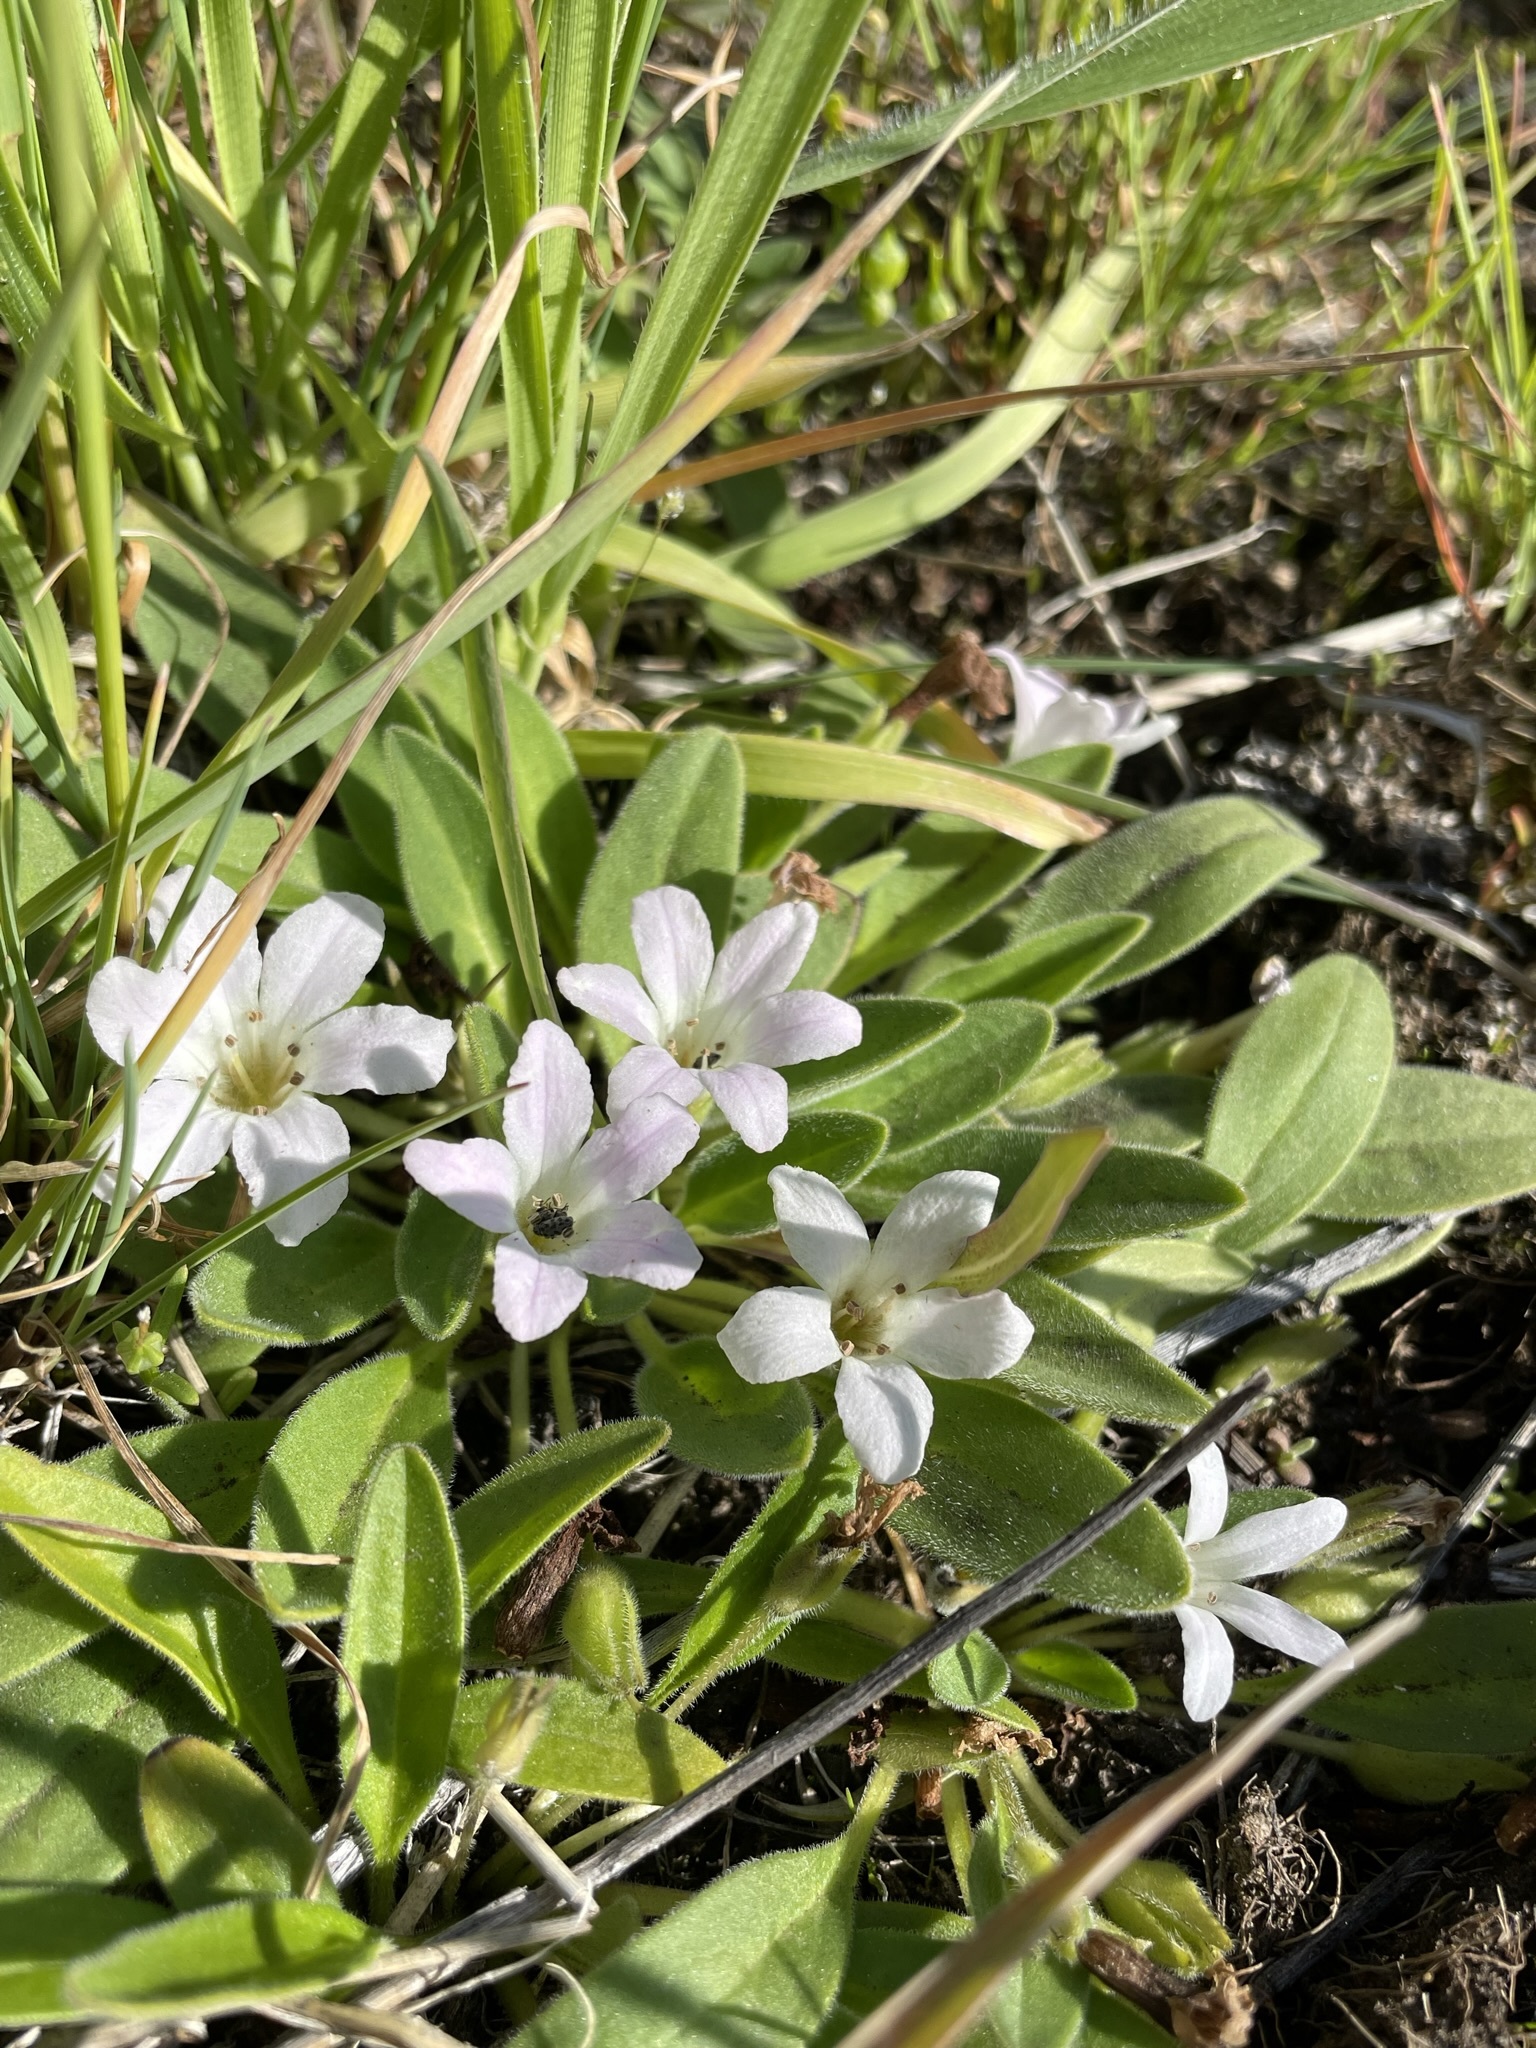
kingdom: Plantae
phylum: Tracheophyta
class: Magnoliopsida
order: Boraginales
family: Hydrophyllaceae
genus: Hesperochiron
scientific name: Hesperochiron californicus
